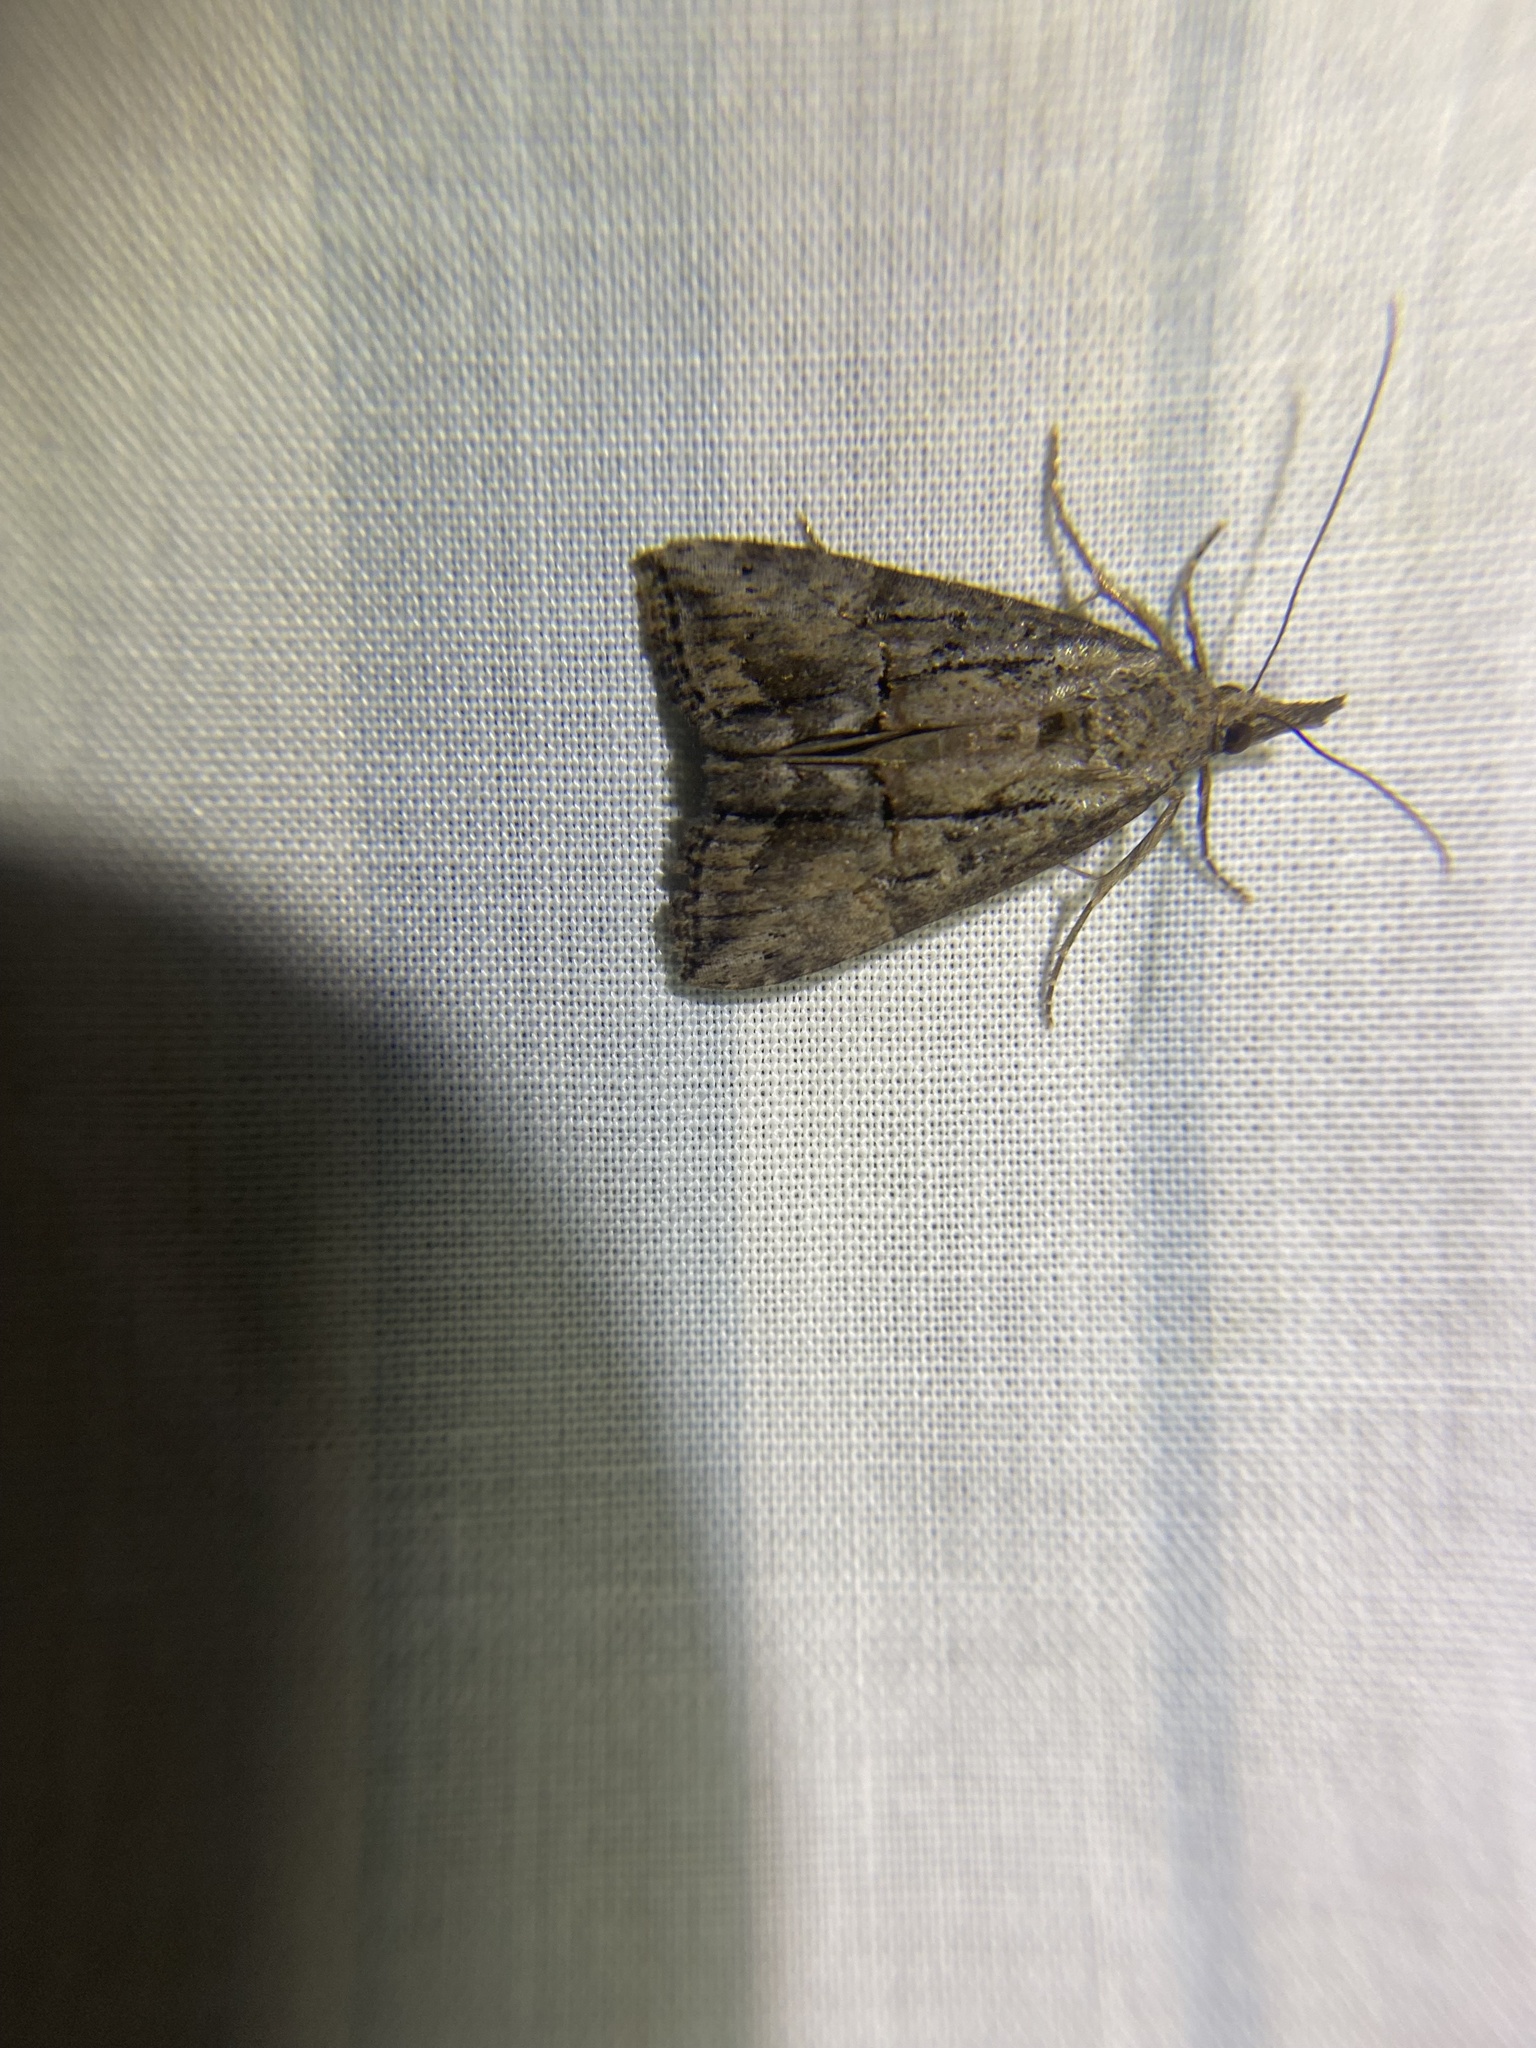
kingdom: Animalia
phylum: Arthropoda
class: Insecta
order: Lepidoptera
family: Erebidae
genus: Hypena
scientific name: Hypena scabra
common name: Green cloverworm
